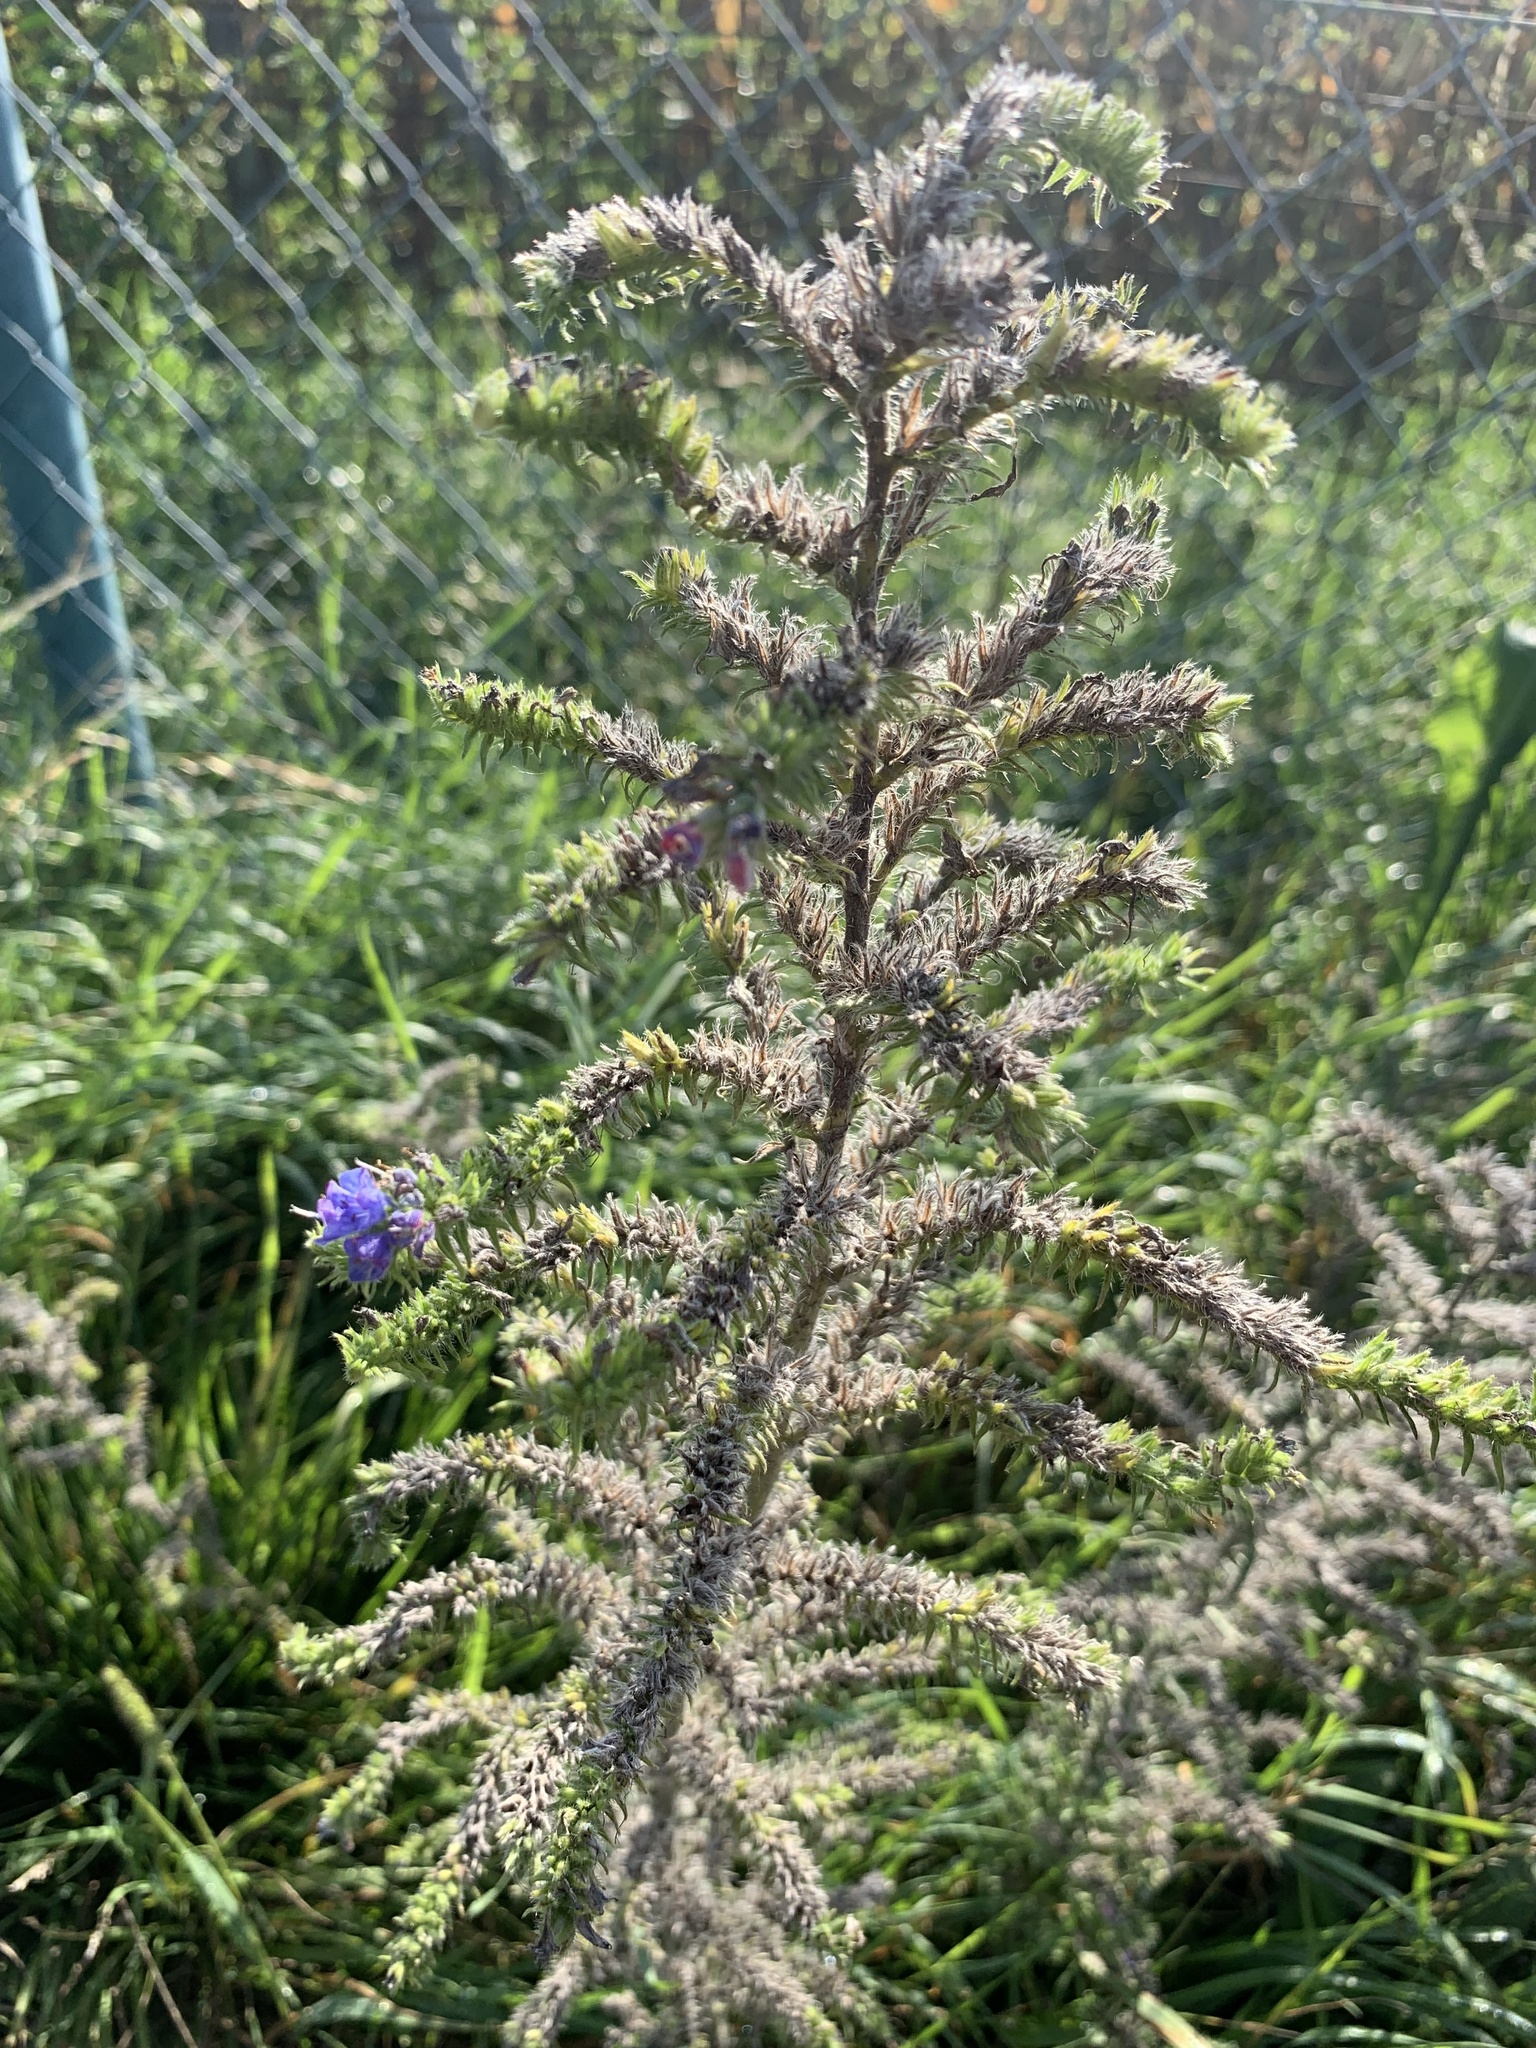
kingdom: Plantae
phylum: Tracheophyta
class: Magnoliopsida
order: Boraginales
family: Boraginaceae
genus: Echium
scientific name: Echium vulgare
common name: Common viper's bugloss
